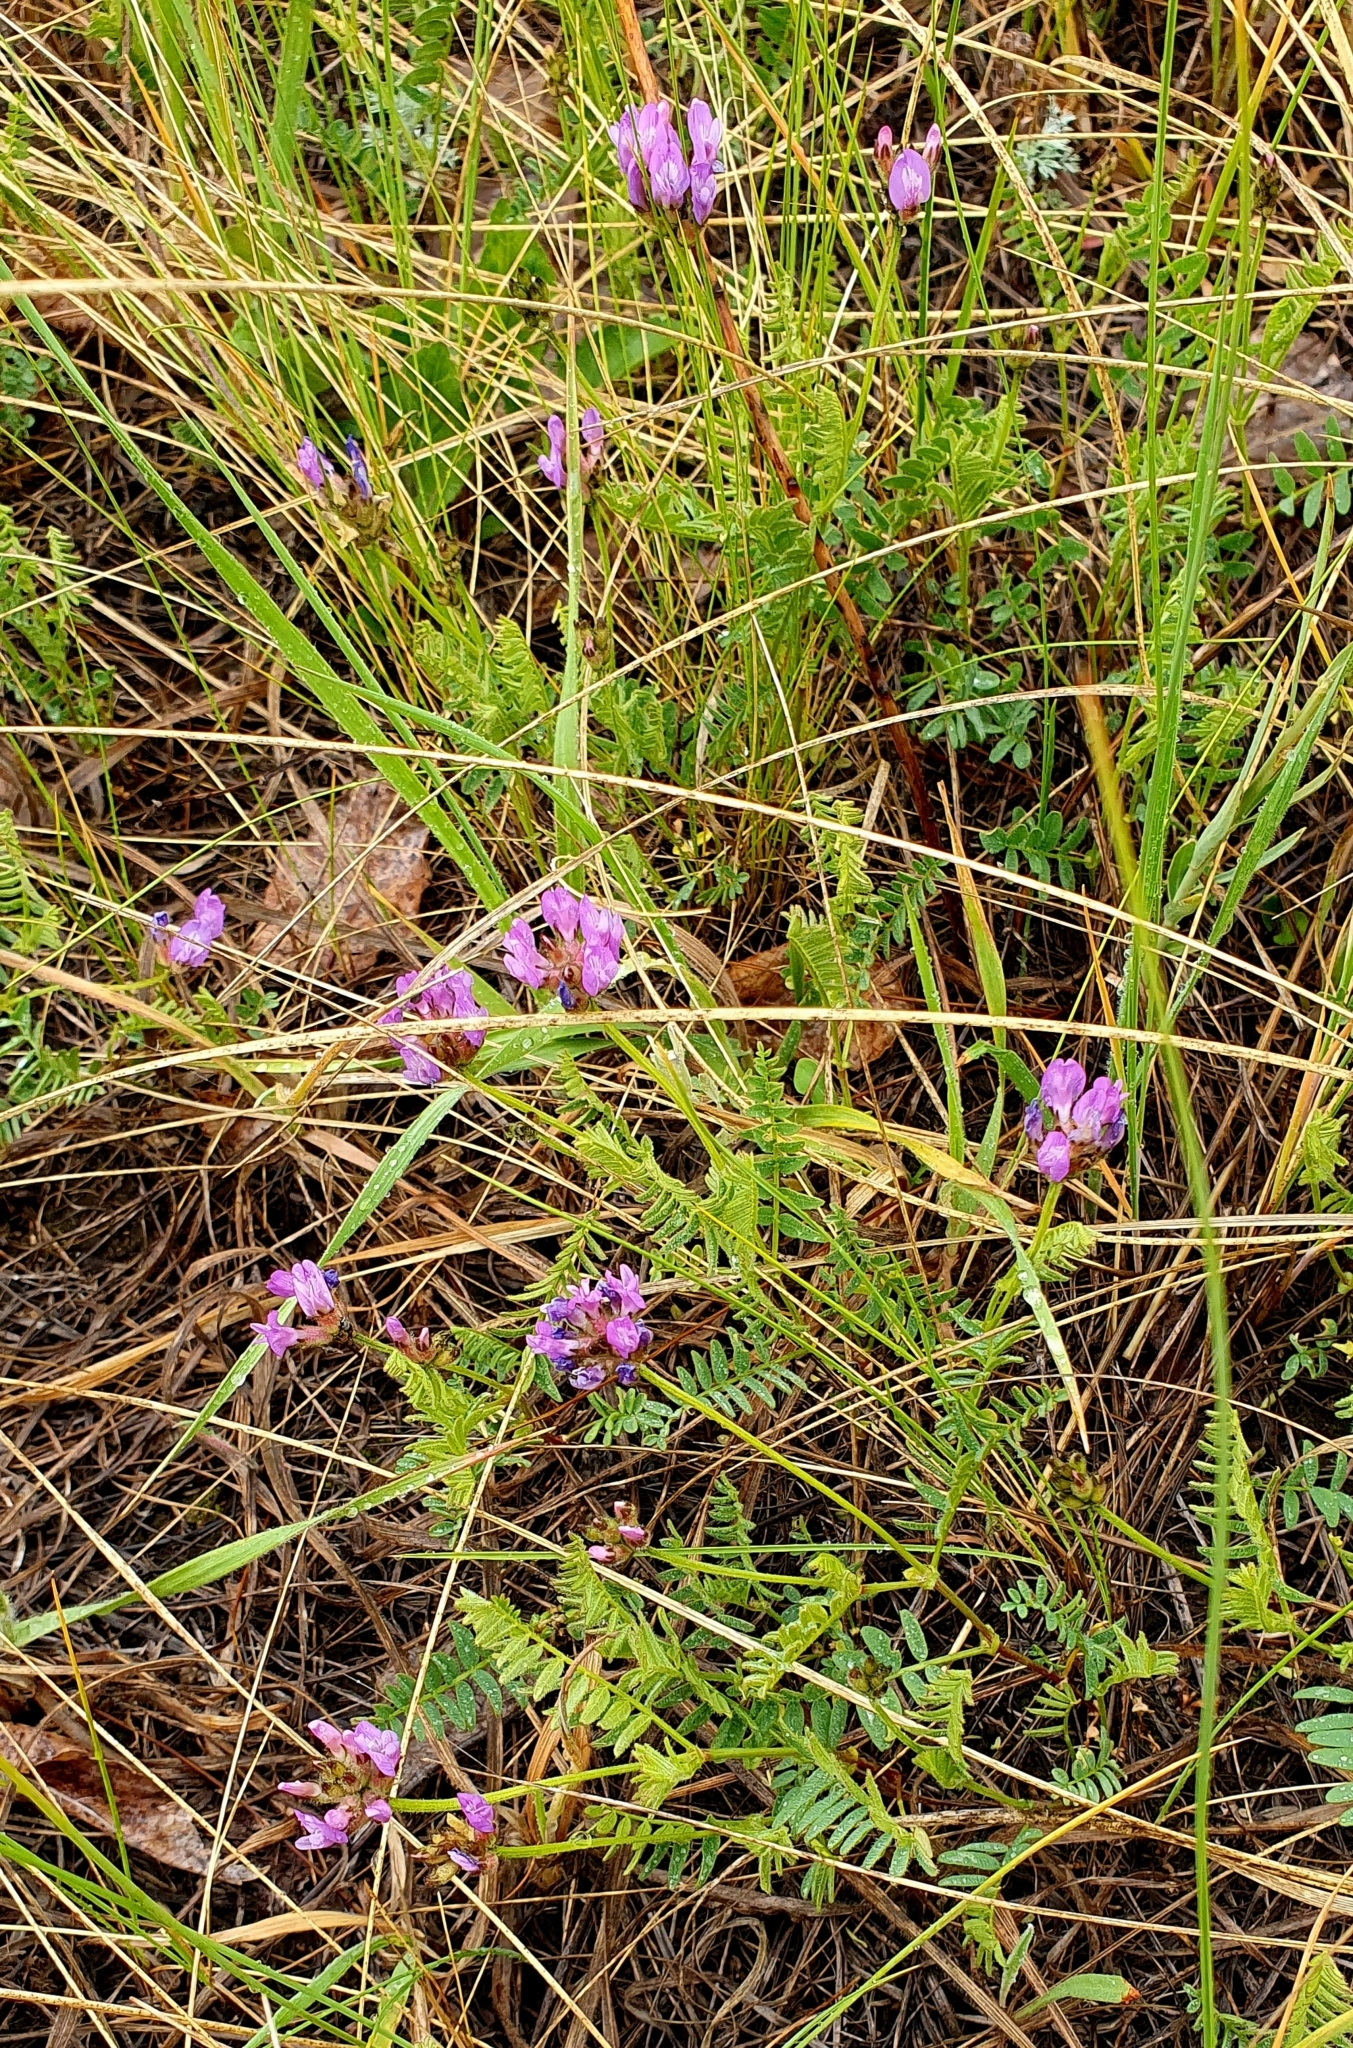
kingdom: Plantae
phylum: Tracheophyta
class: Magnoliopsida
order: Fabales
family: Fabaceae
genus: Astragalus
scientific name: Astragalus danicus
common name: Purple milk-vetch
